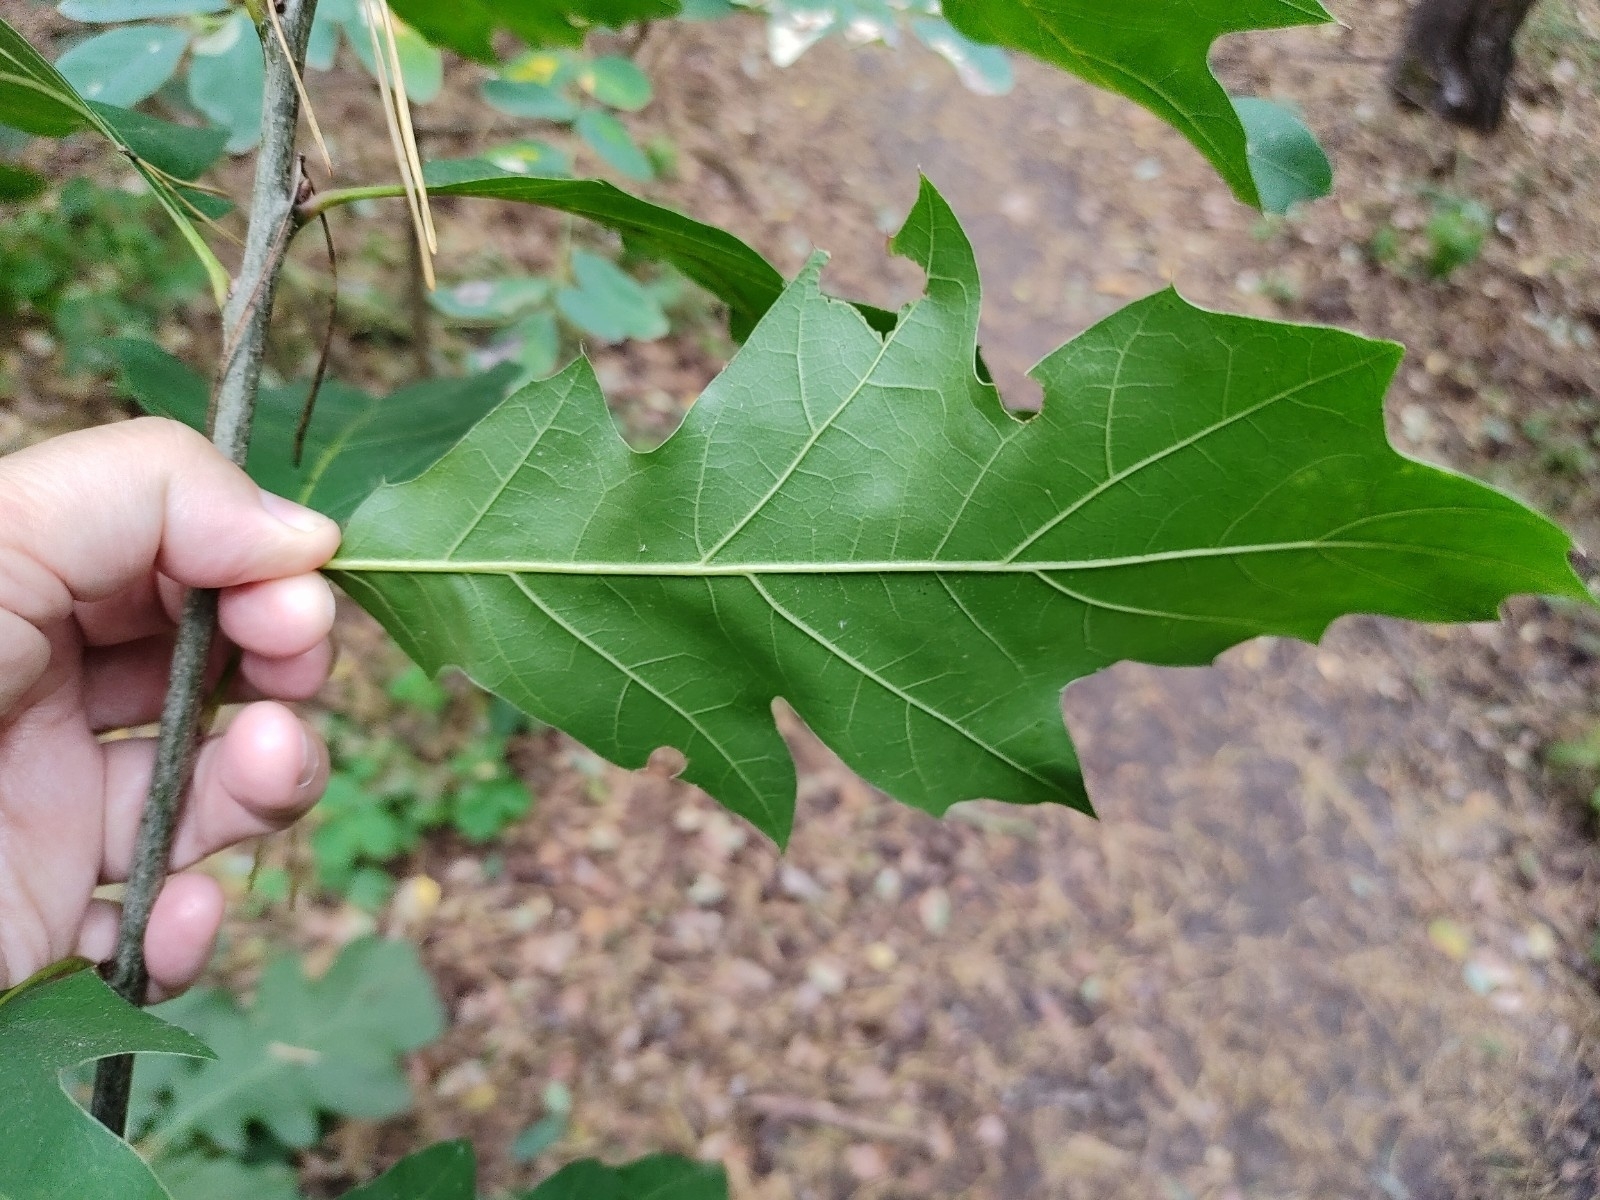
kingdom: Plantae
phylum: Tracheophyta
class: Magnoliopsida
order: Fagales
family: Fagaceae
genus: Quercus
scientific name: Quercus rubra
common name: Red oak
